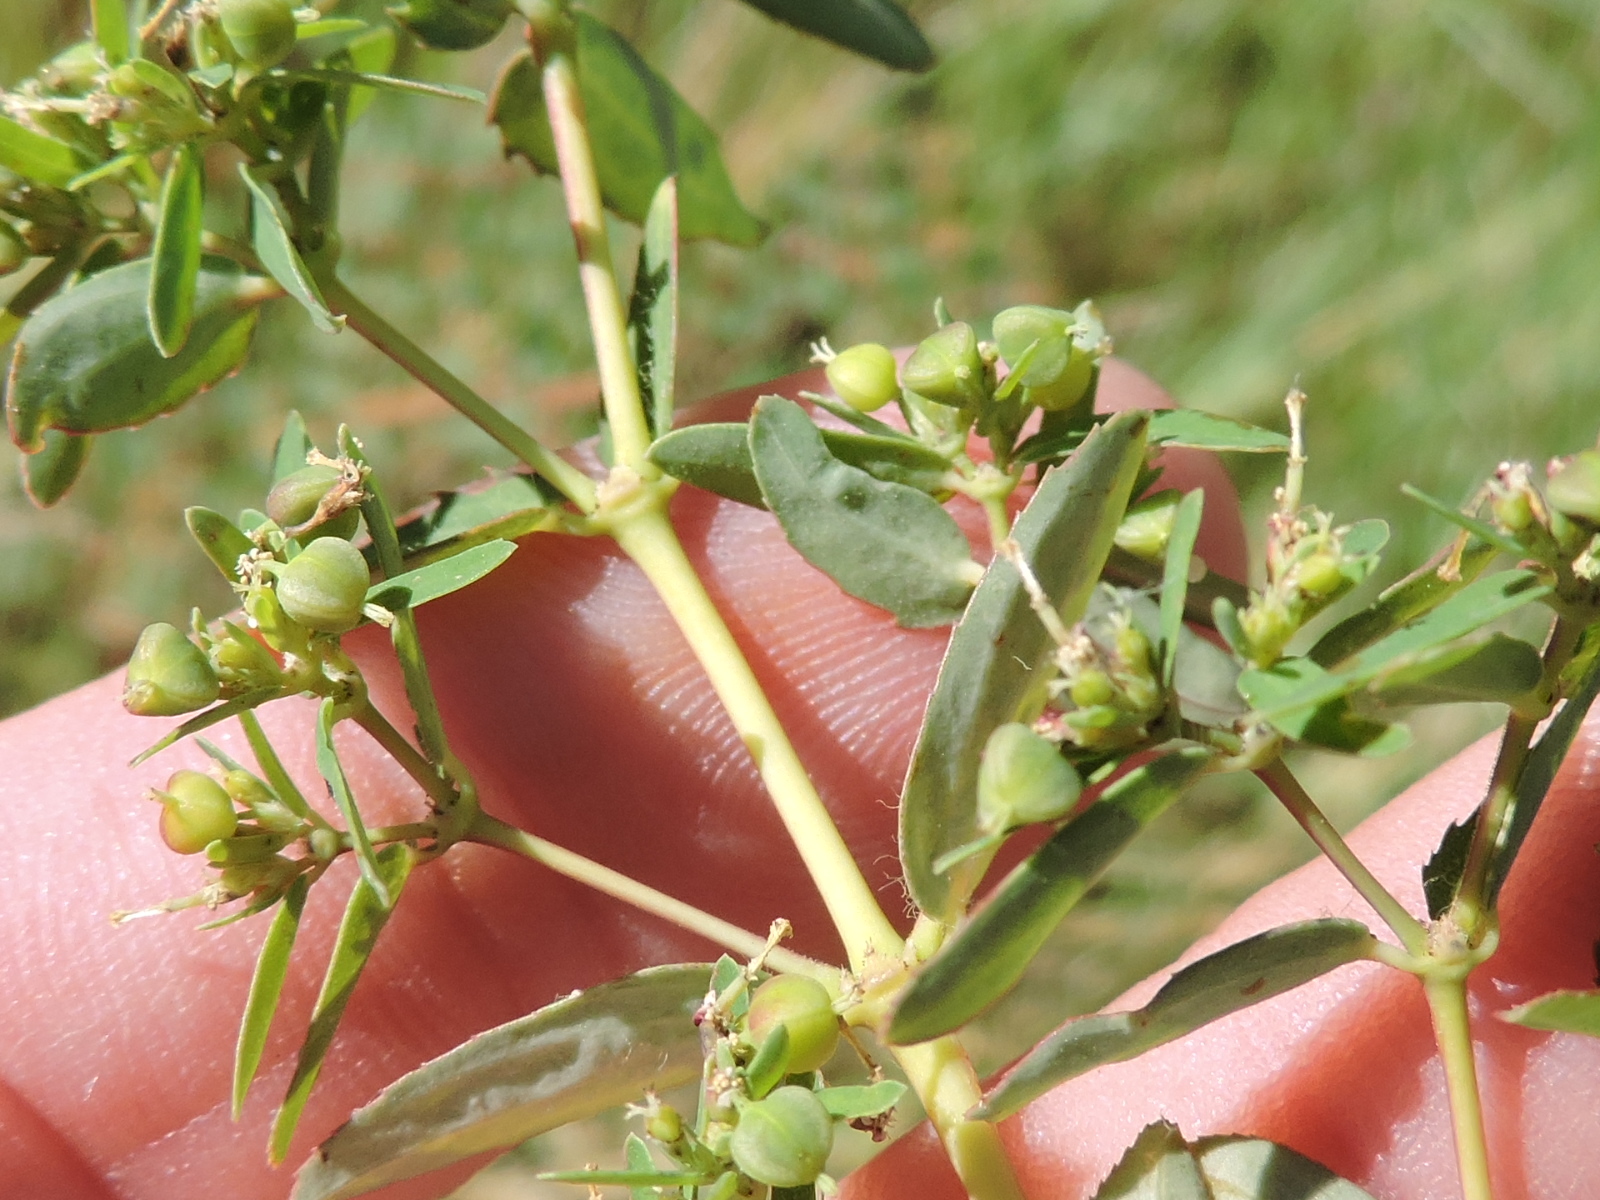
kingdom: Plantae
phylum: Tracheophyta
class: Magnoliopsida
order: Malpighiales
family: Euphorbiaceae
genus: Euphorbia
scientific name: Euphorbia nutans
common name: Eyebane
